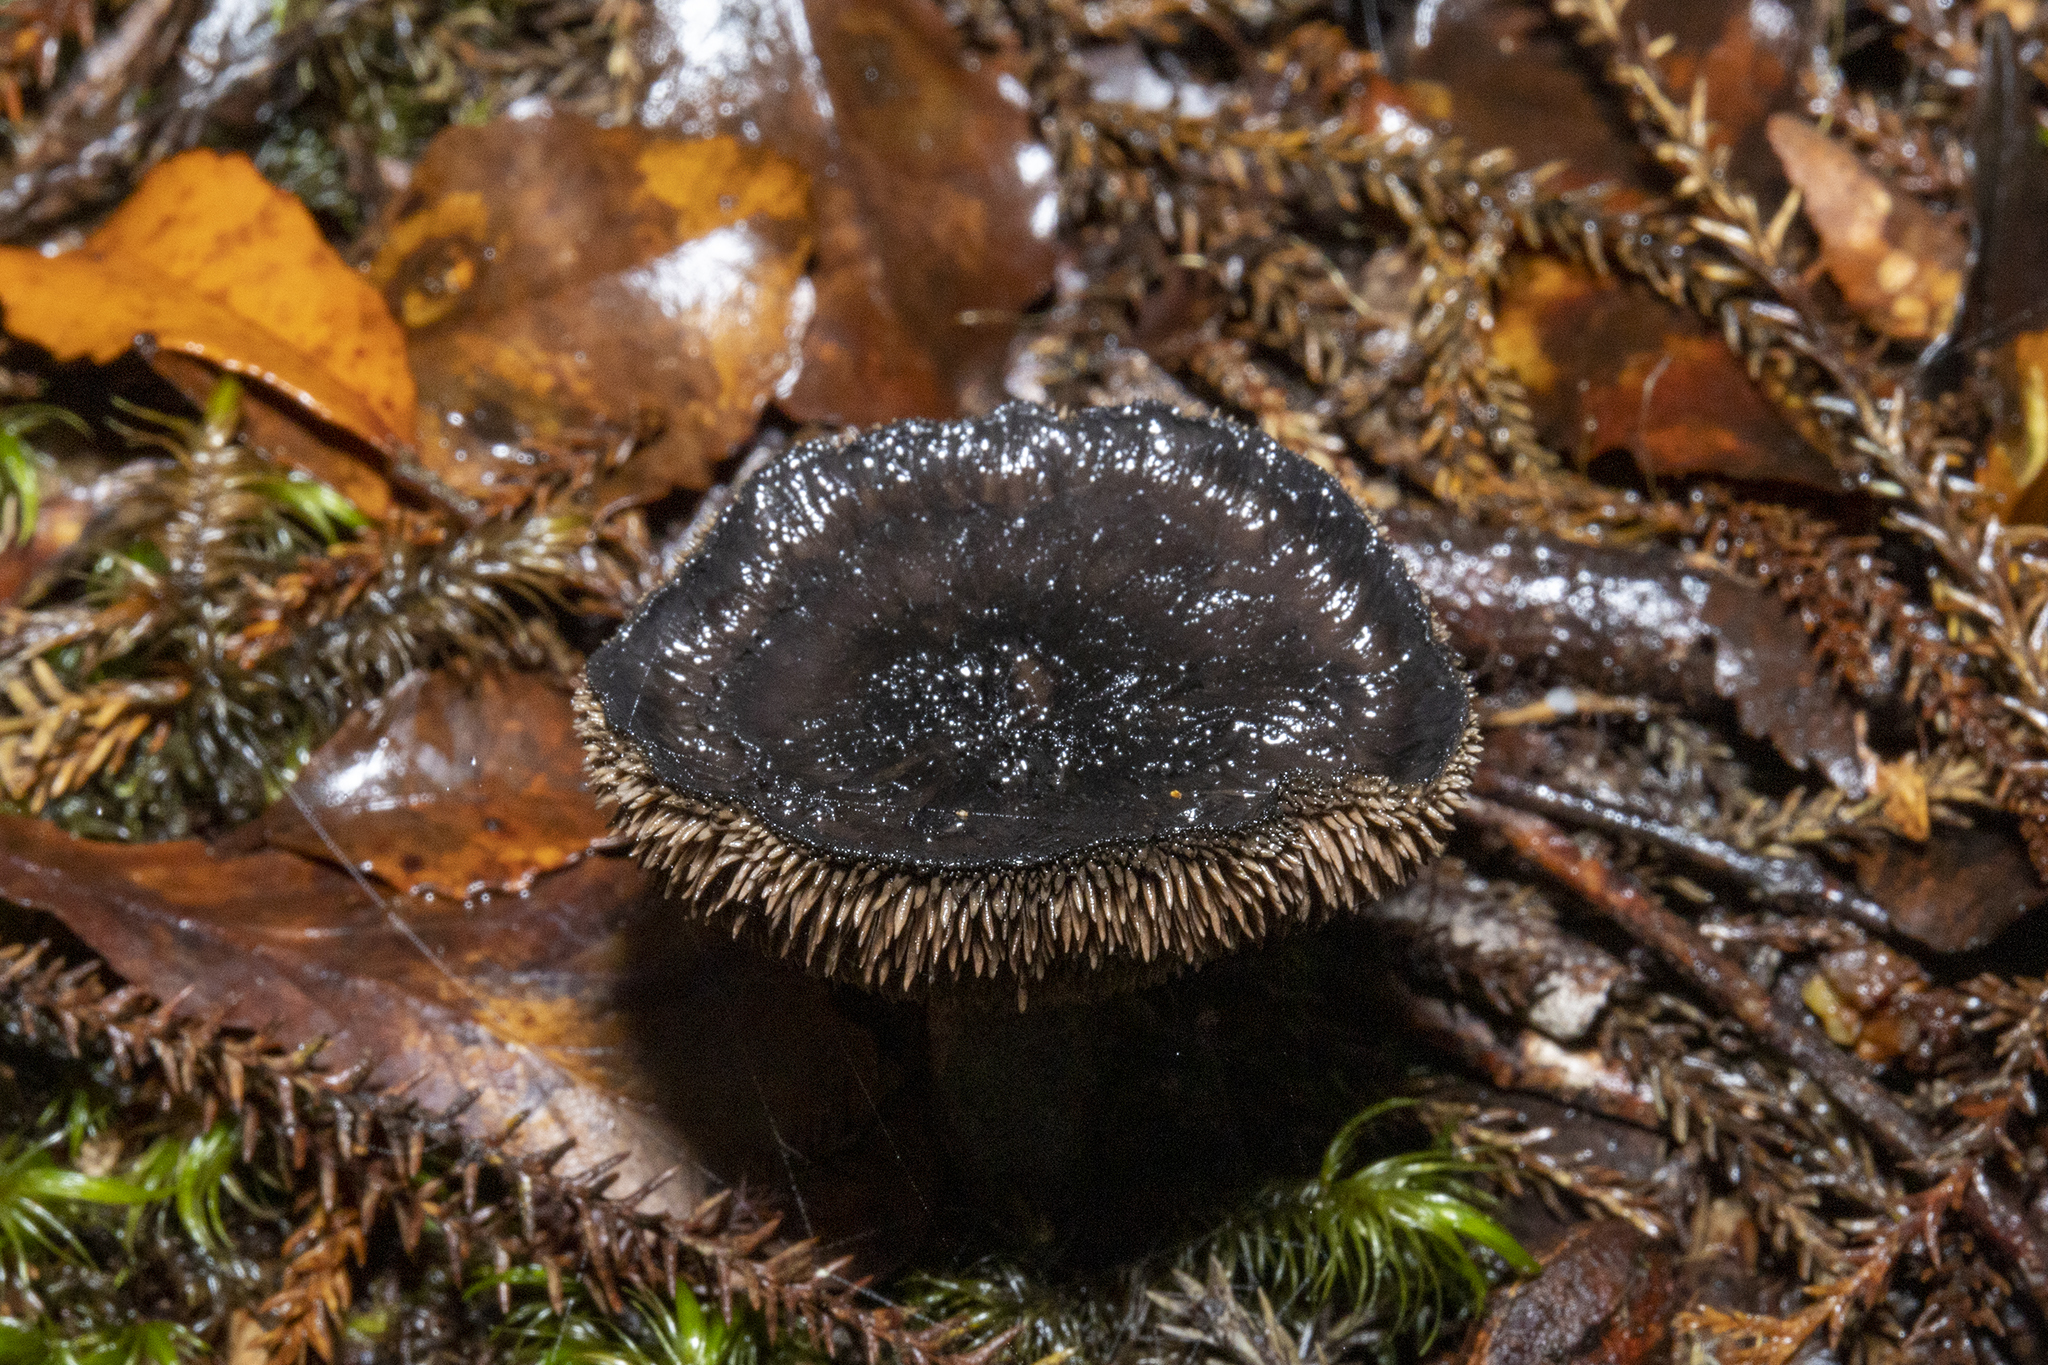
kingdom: Fungi
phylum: Basidiomycota
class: Agaricomycetes
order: Thelephorales
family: Bankeraceae
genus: Sarcodon
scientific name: Sarcodon carbonarius
